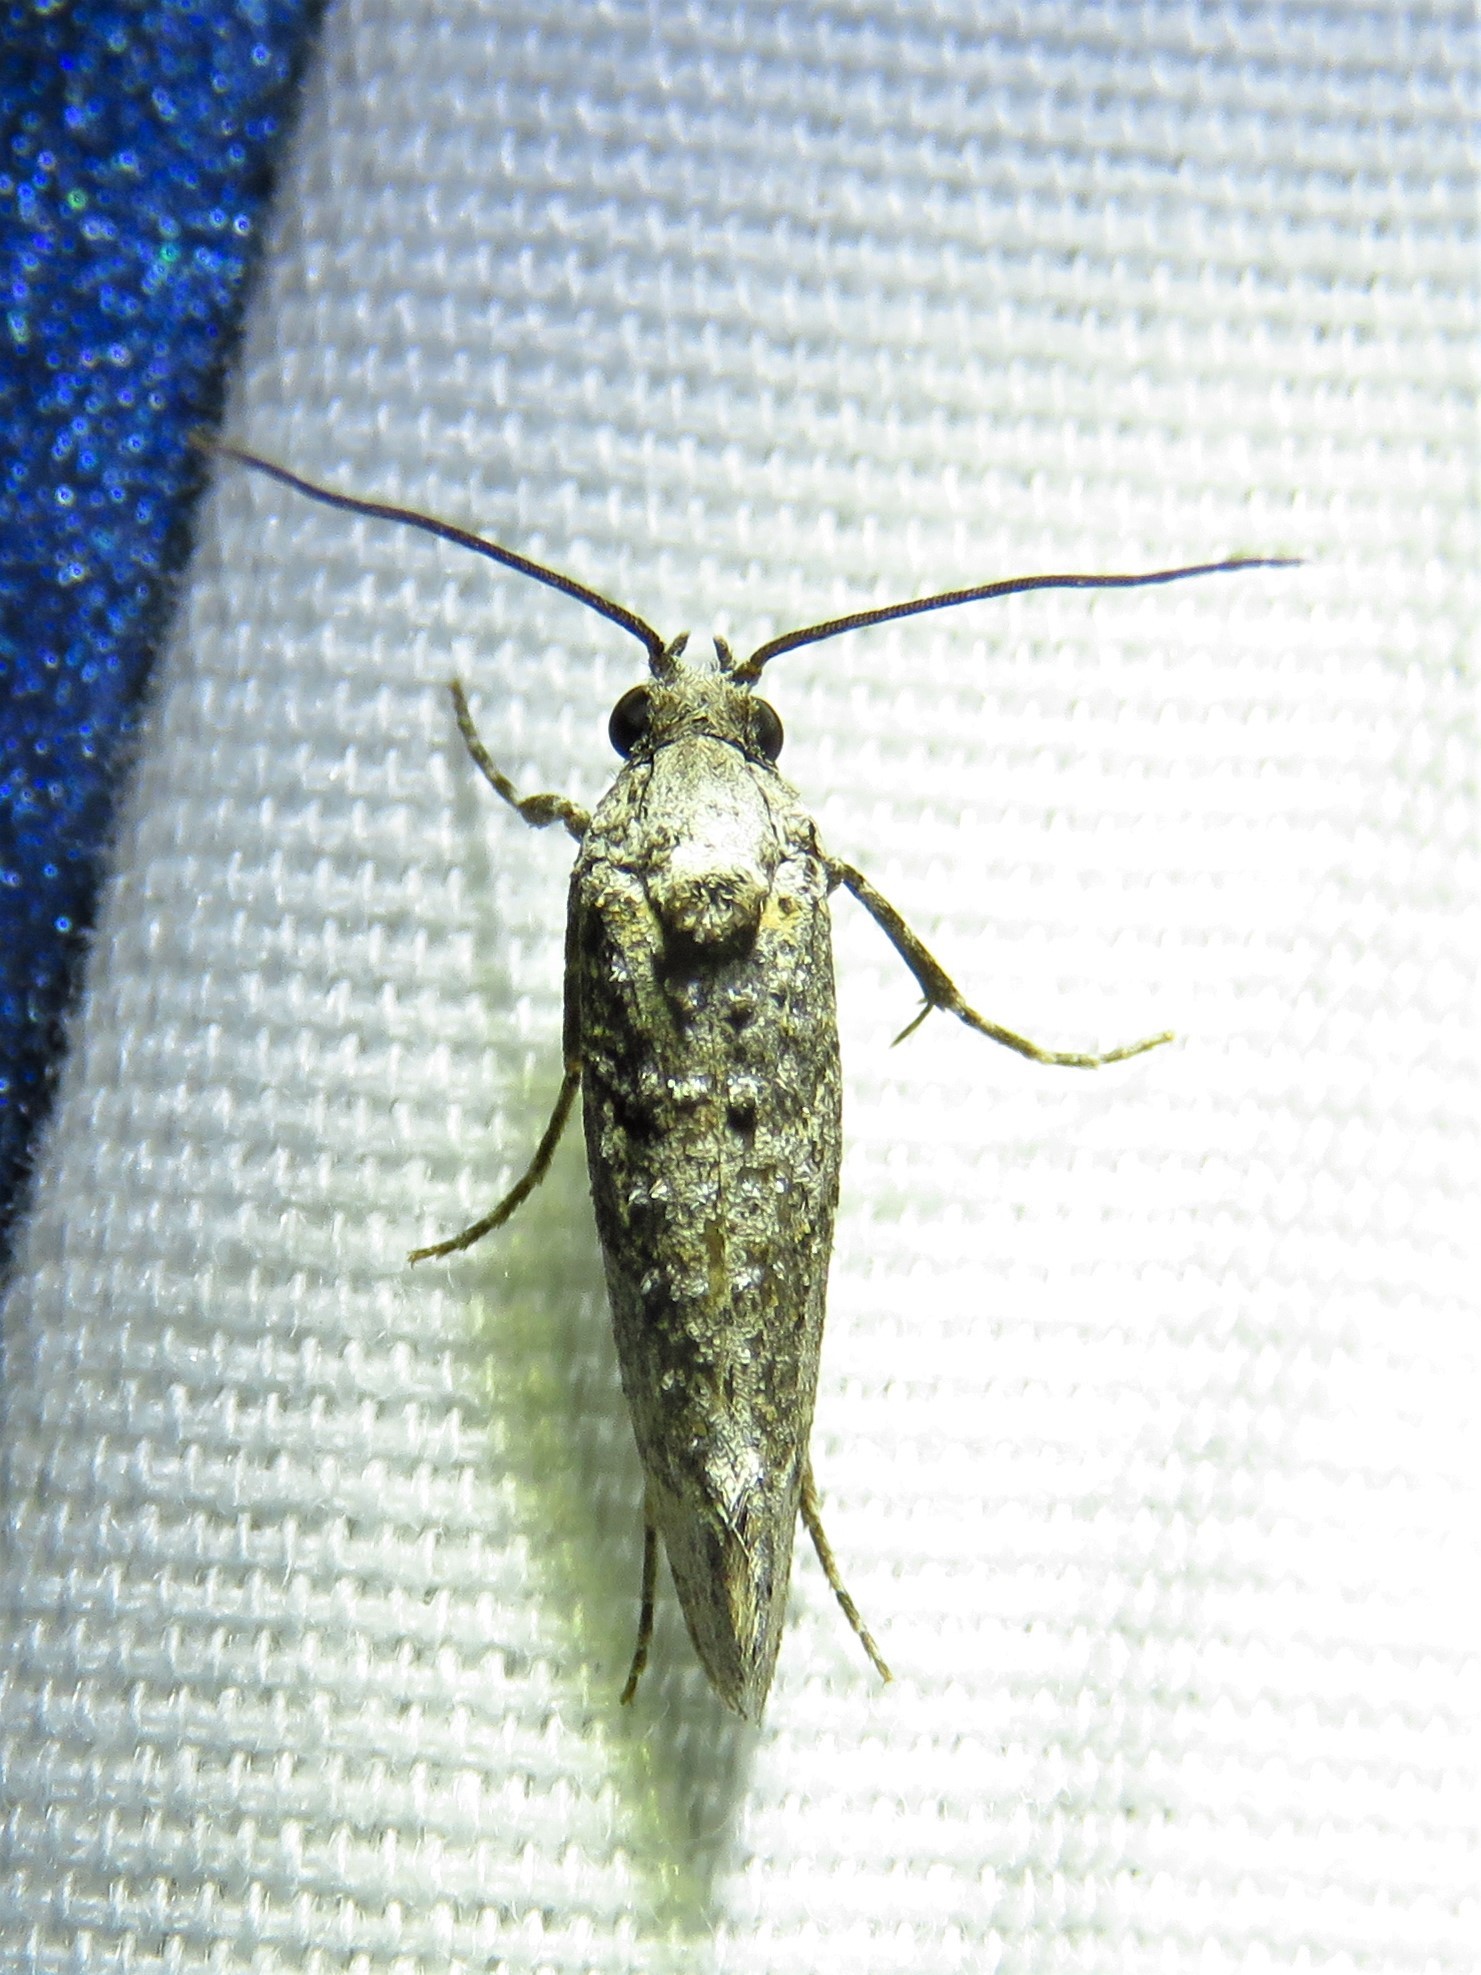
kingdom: Animalia
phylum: Arthropoda
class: Insecta
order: Lepidoptera
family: Tineidae
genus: Dyotopasta
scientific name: Dyotopasta yumaella
